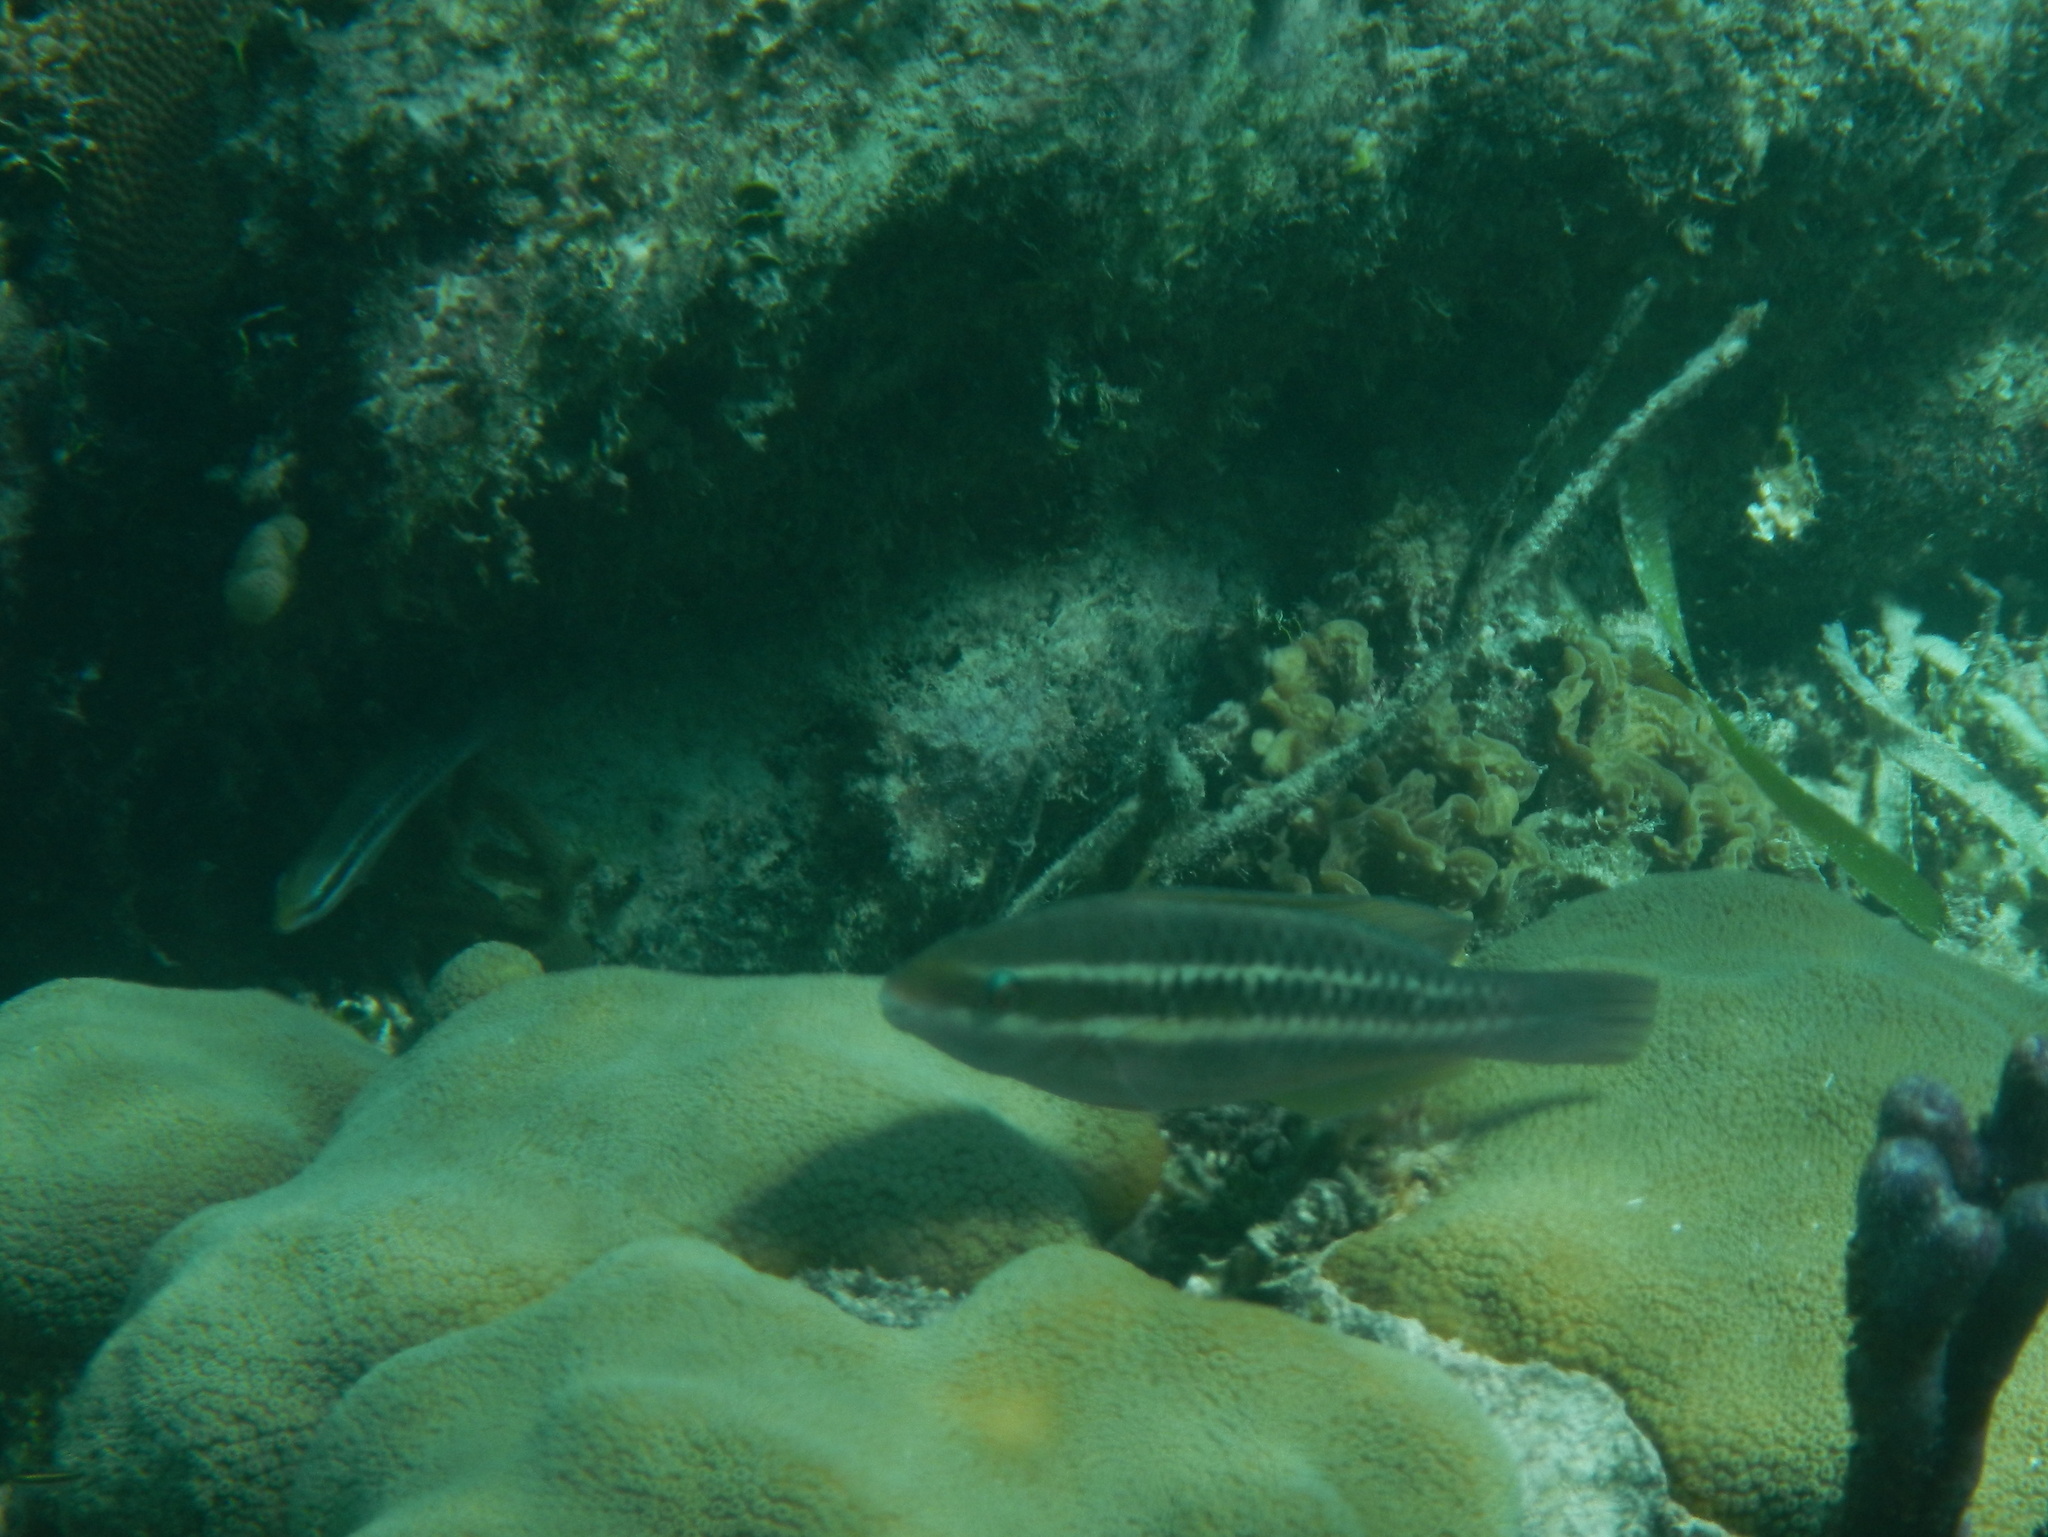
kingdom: Animalia
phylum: Chordata
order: Perciformes
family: Scaridae
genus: Scarus
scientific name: Scarus iseri
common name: Striped parrotfish
